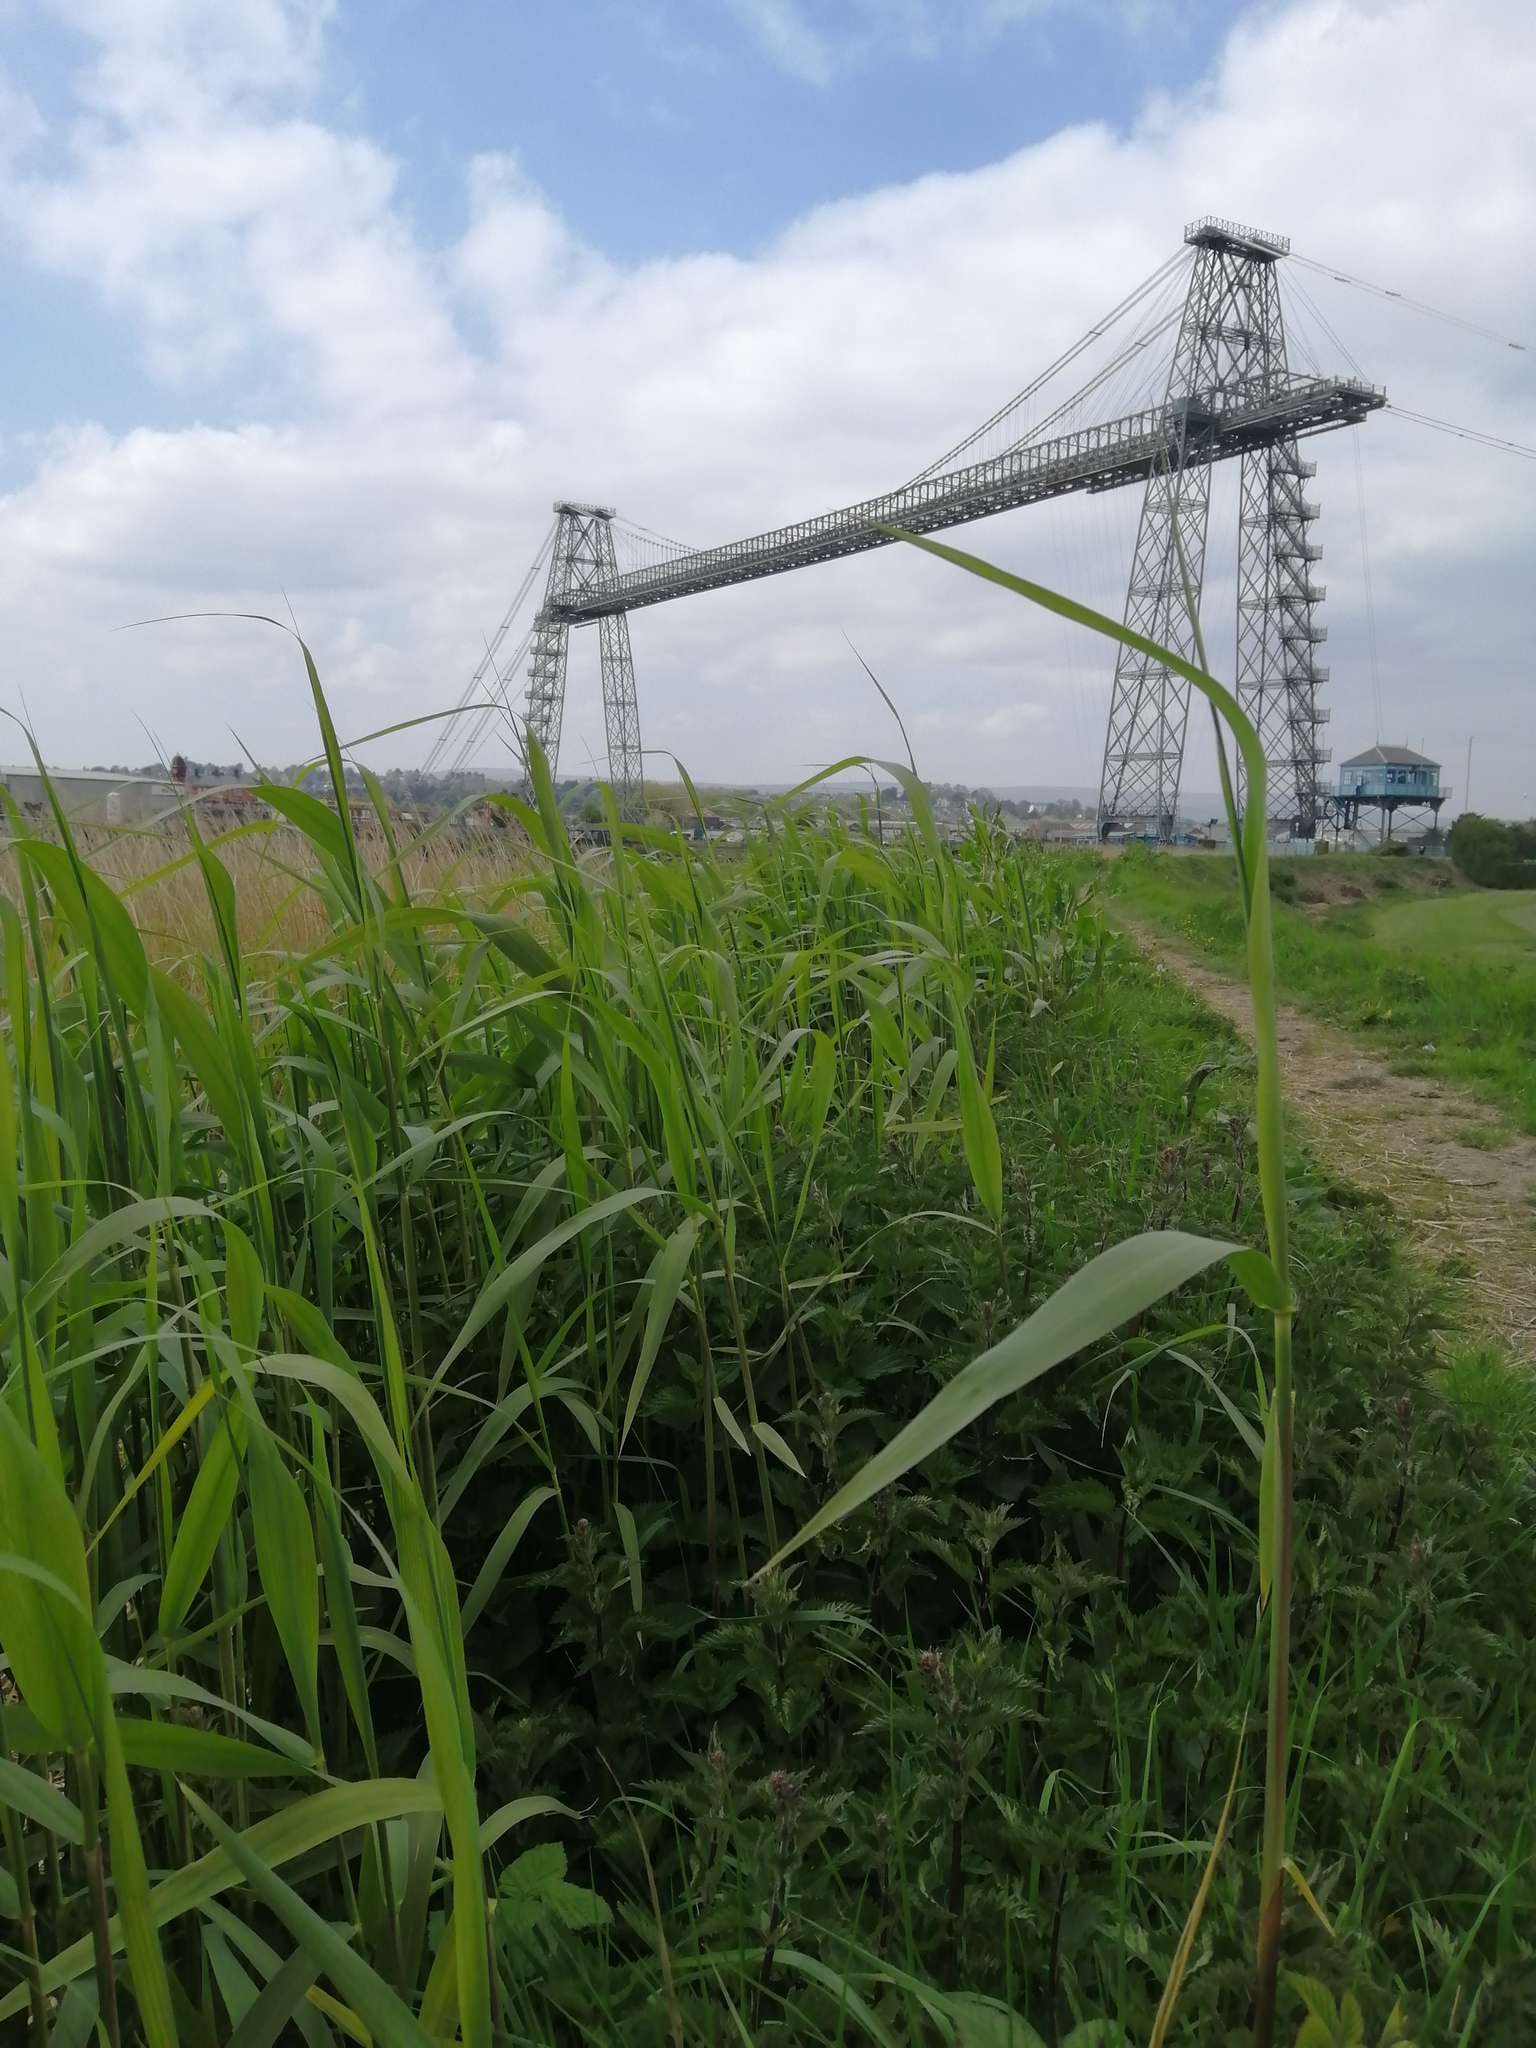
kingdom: Plantae
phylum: Tracheophyta
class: Liliopsida
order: Poales
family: Poaceae
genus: Phragmites
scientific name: Phragmites australis
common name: Common reed
